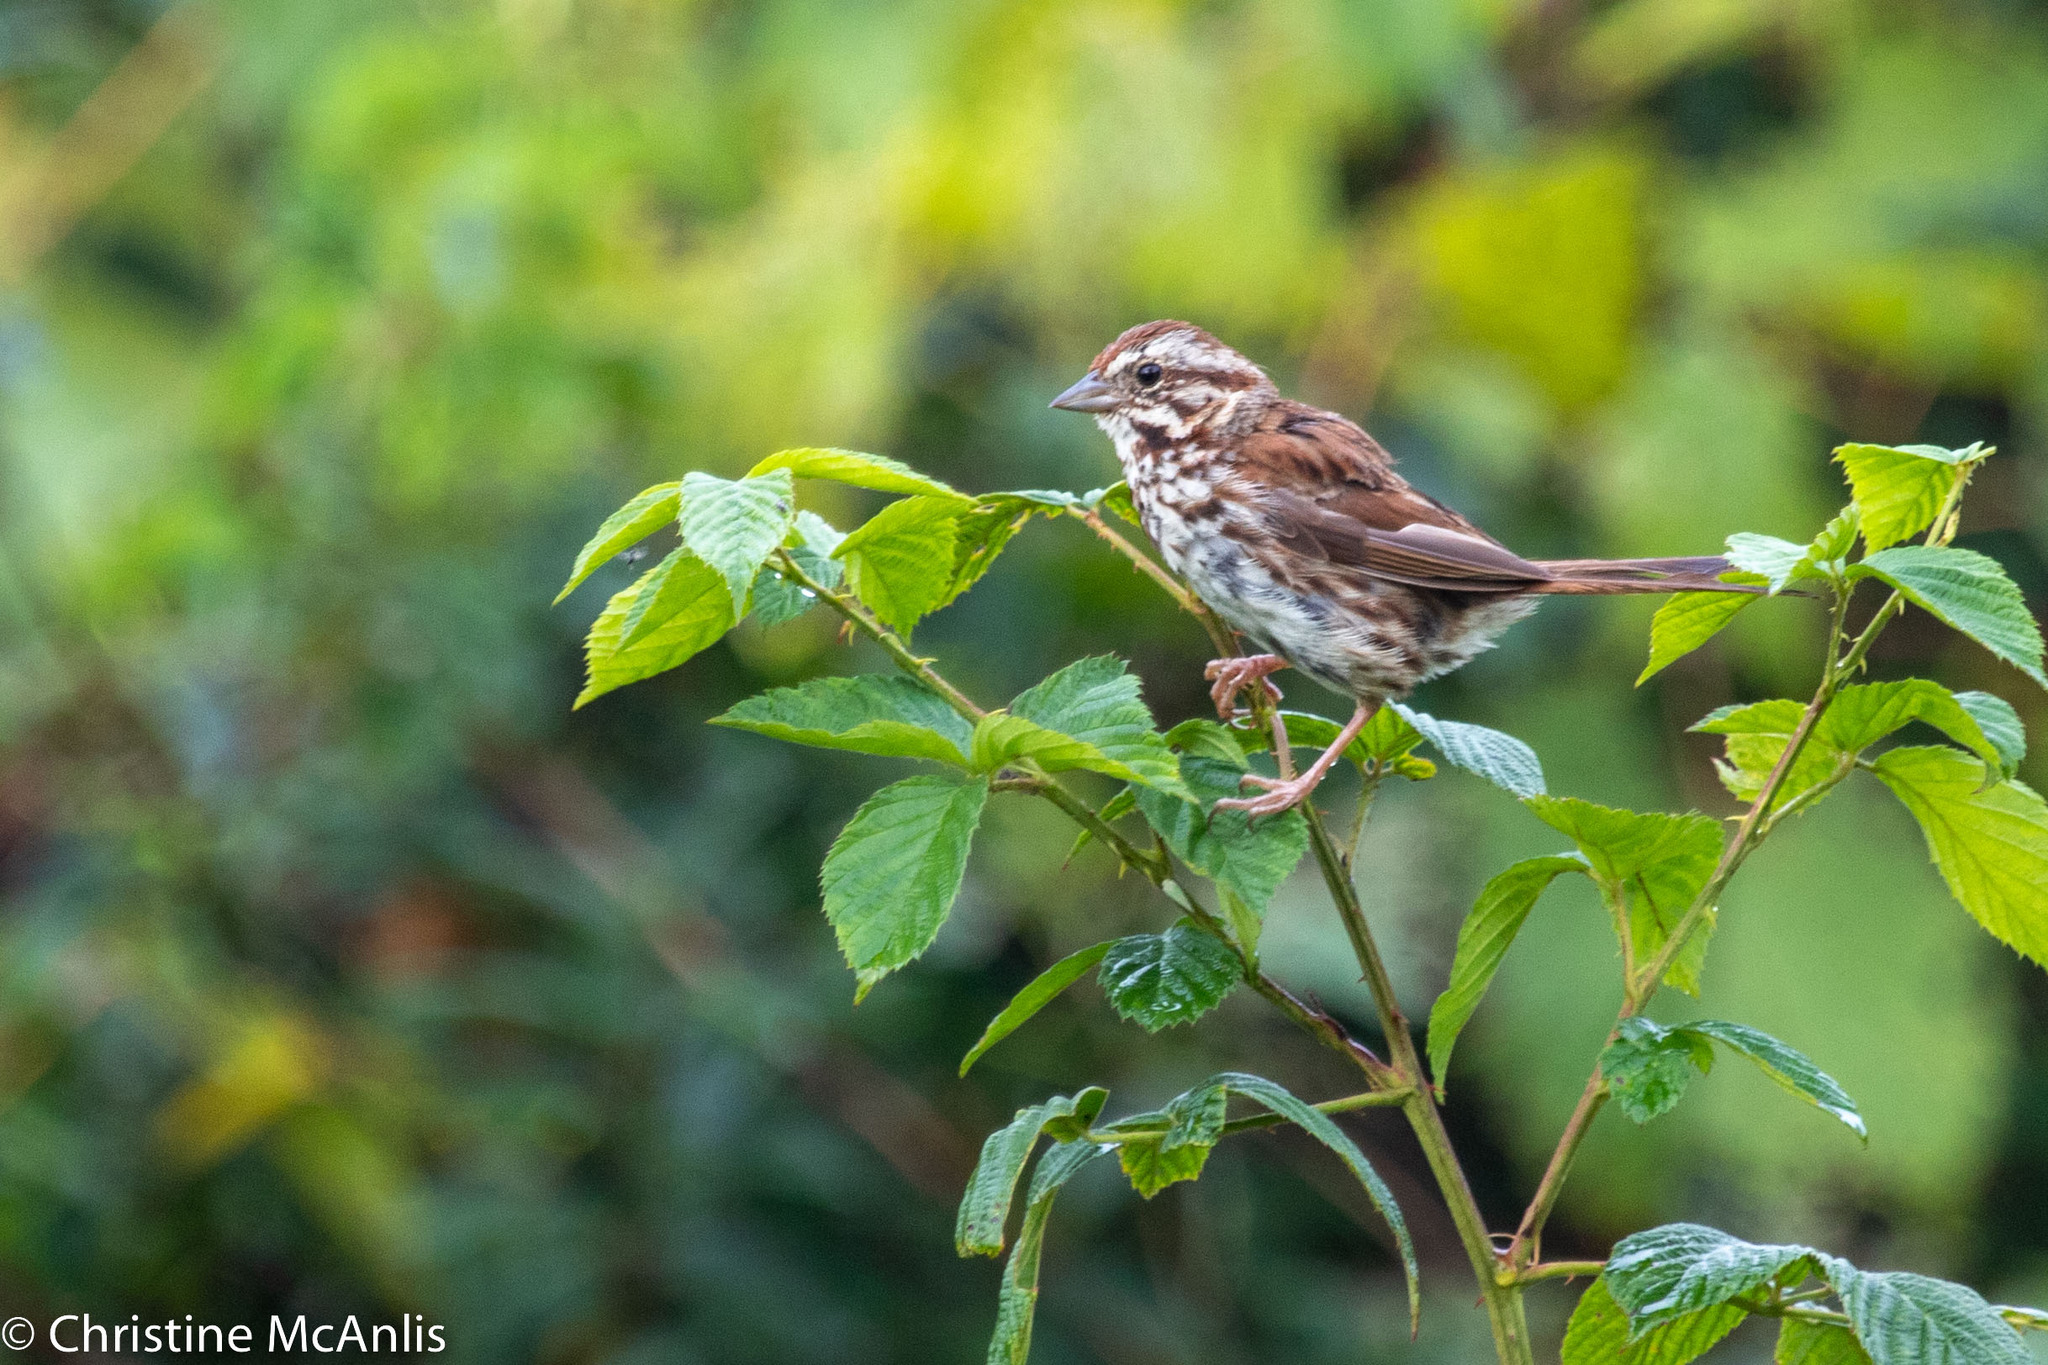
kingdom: Animalia
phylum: Chordata
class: Aves
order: Passeriformes
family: Passerellidae
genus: Melospiza
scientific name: Melospiza melodia
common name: Song sparrow
